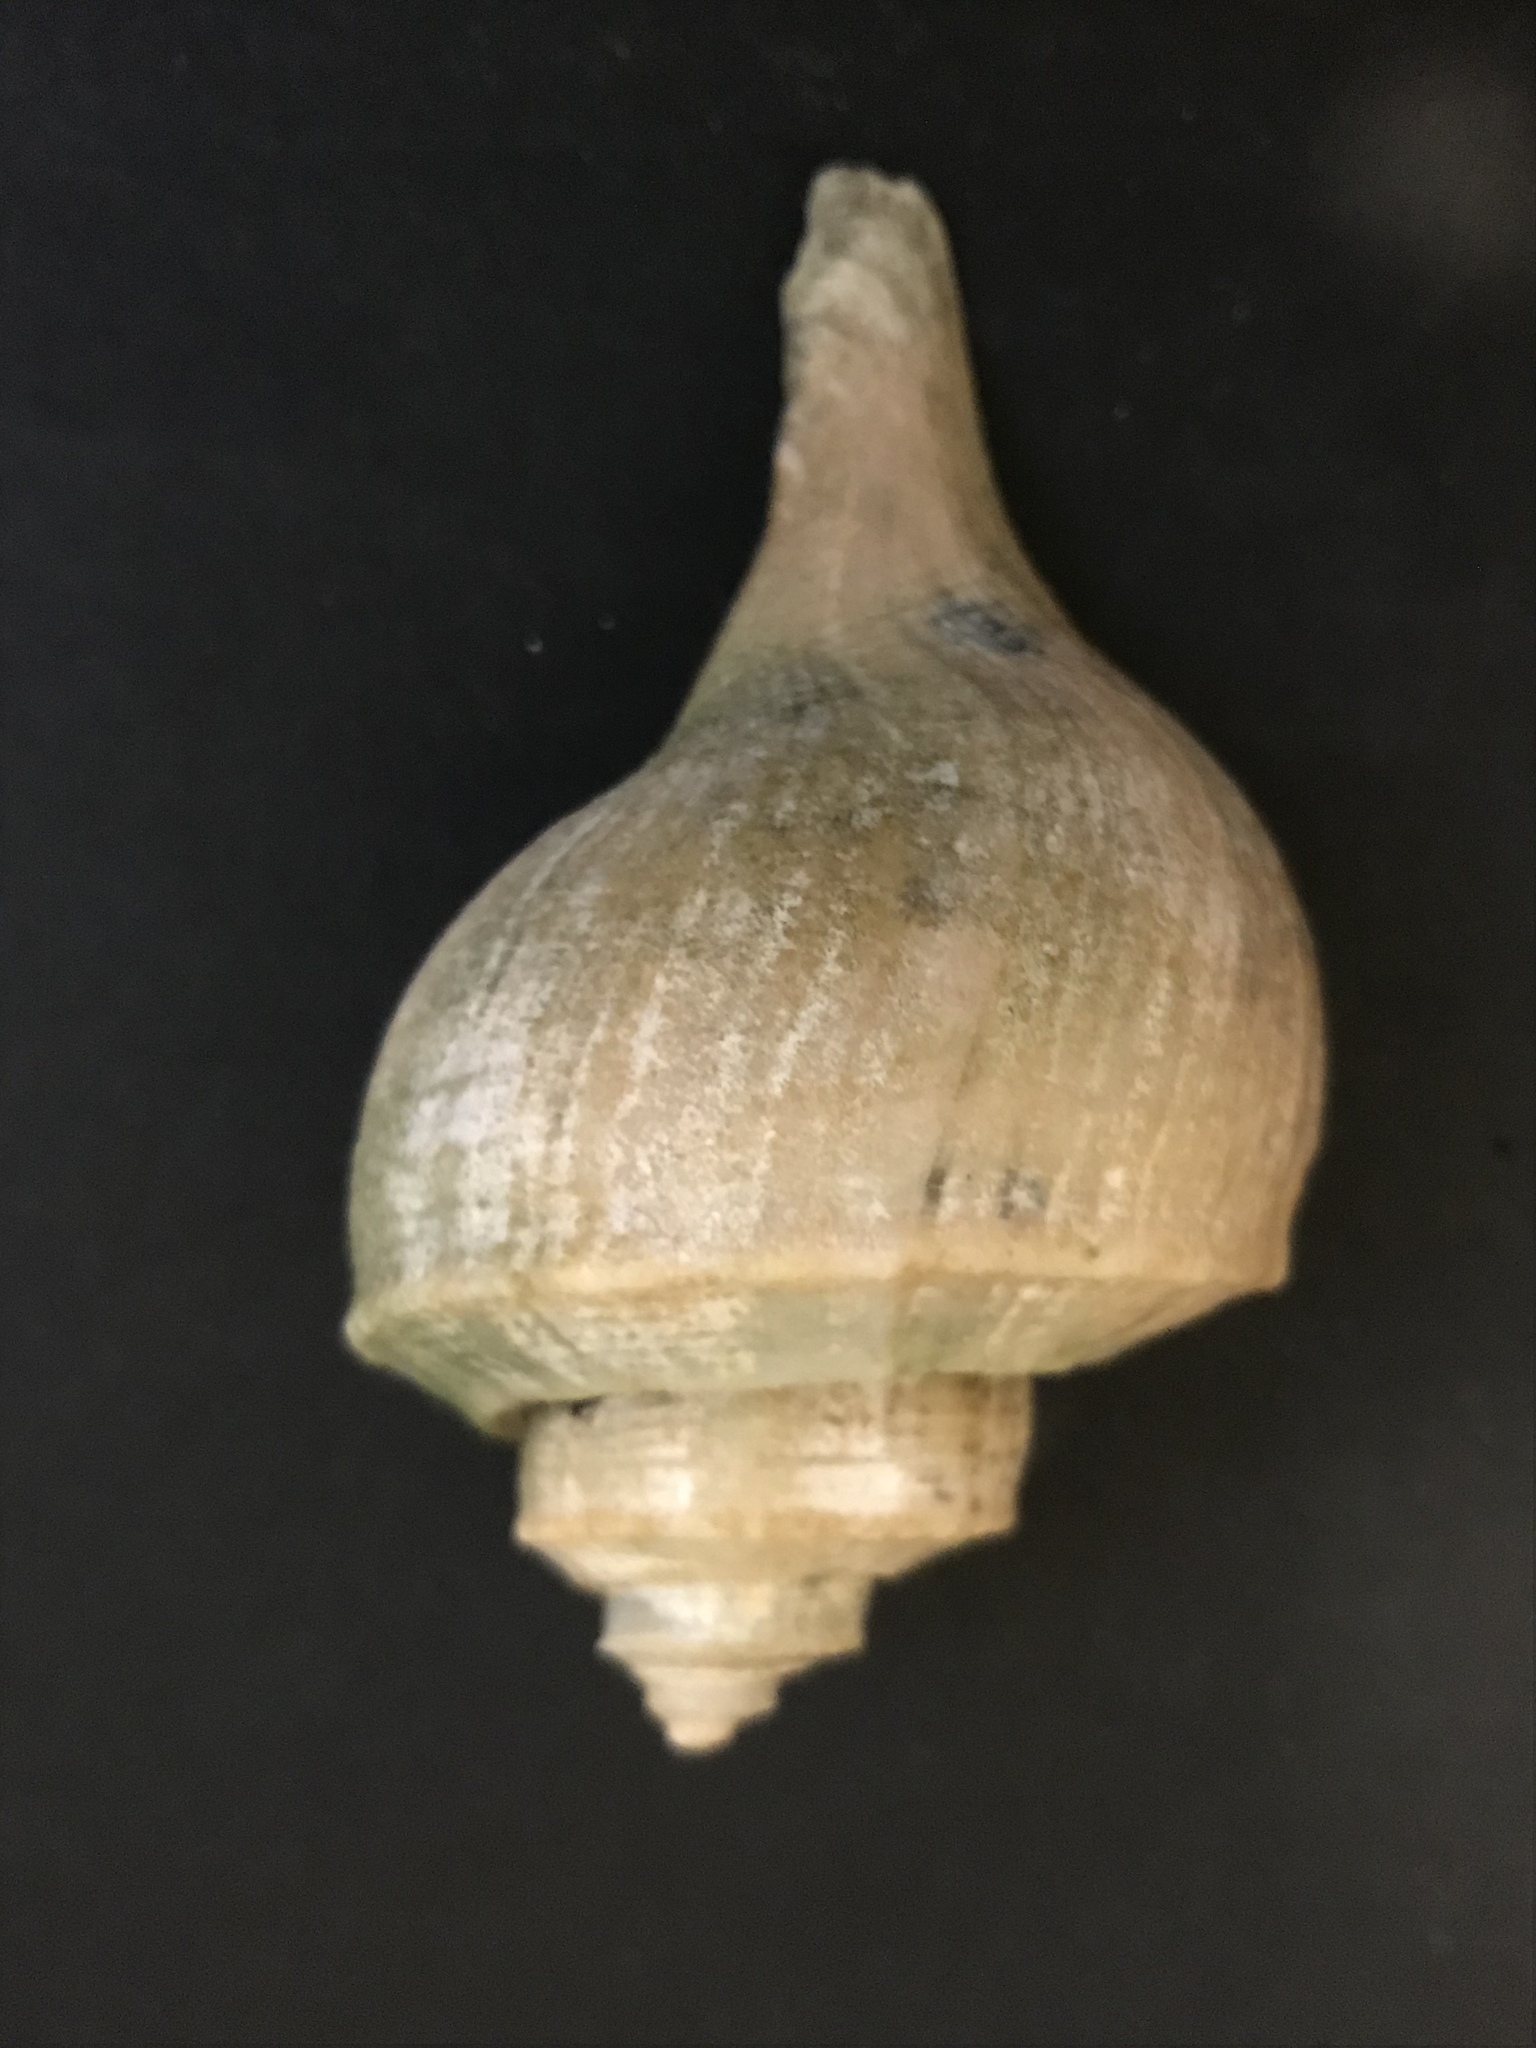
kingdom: Animalia
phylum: Mollusca
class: Gastropoda
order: Neogastropoda
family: Busyconidae
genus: Busycotypus
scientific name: Busycotypus canaliculatus
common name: Channeled whelk
